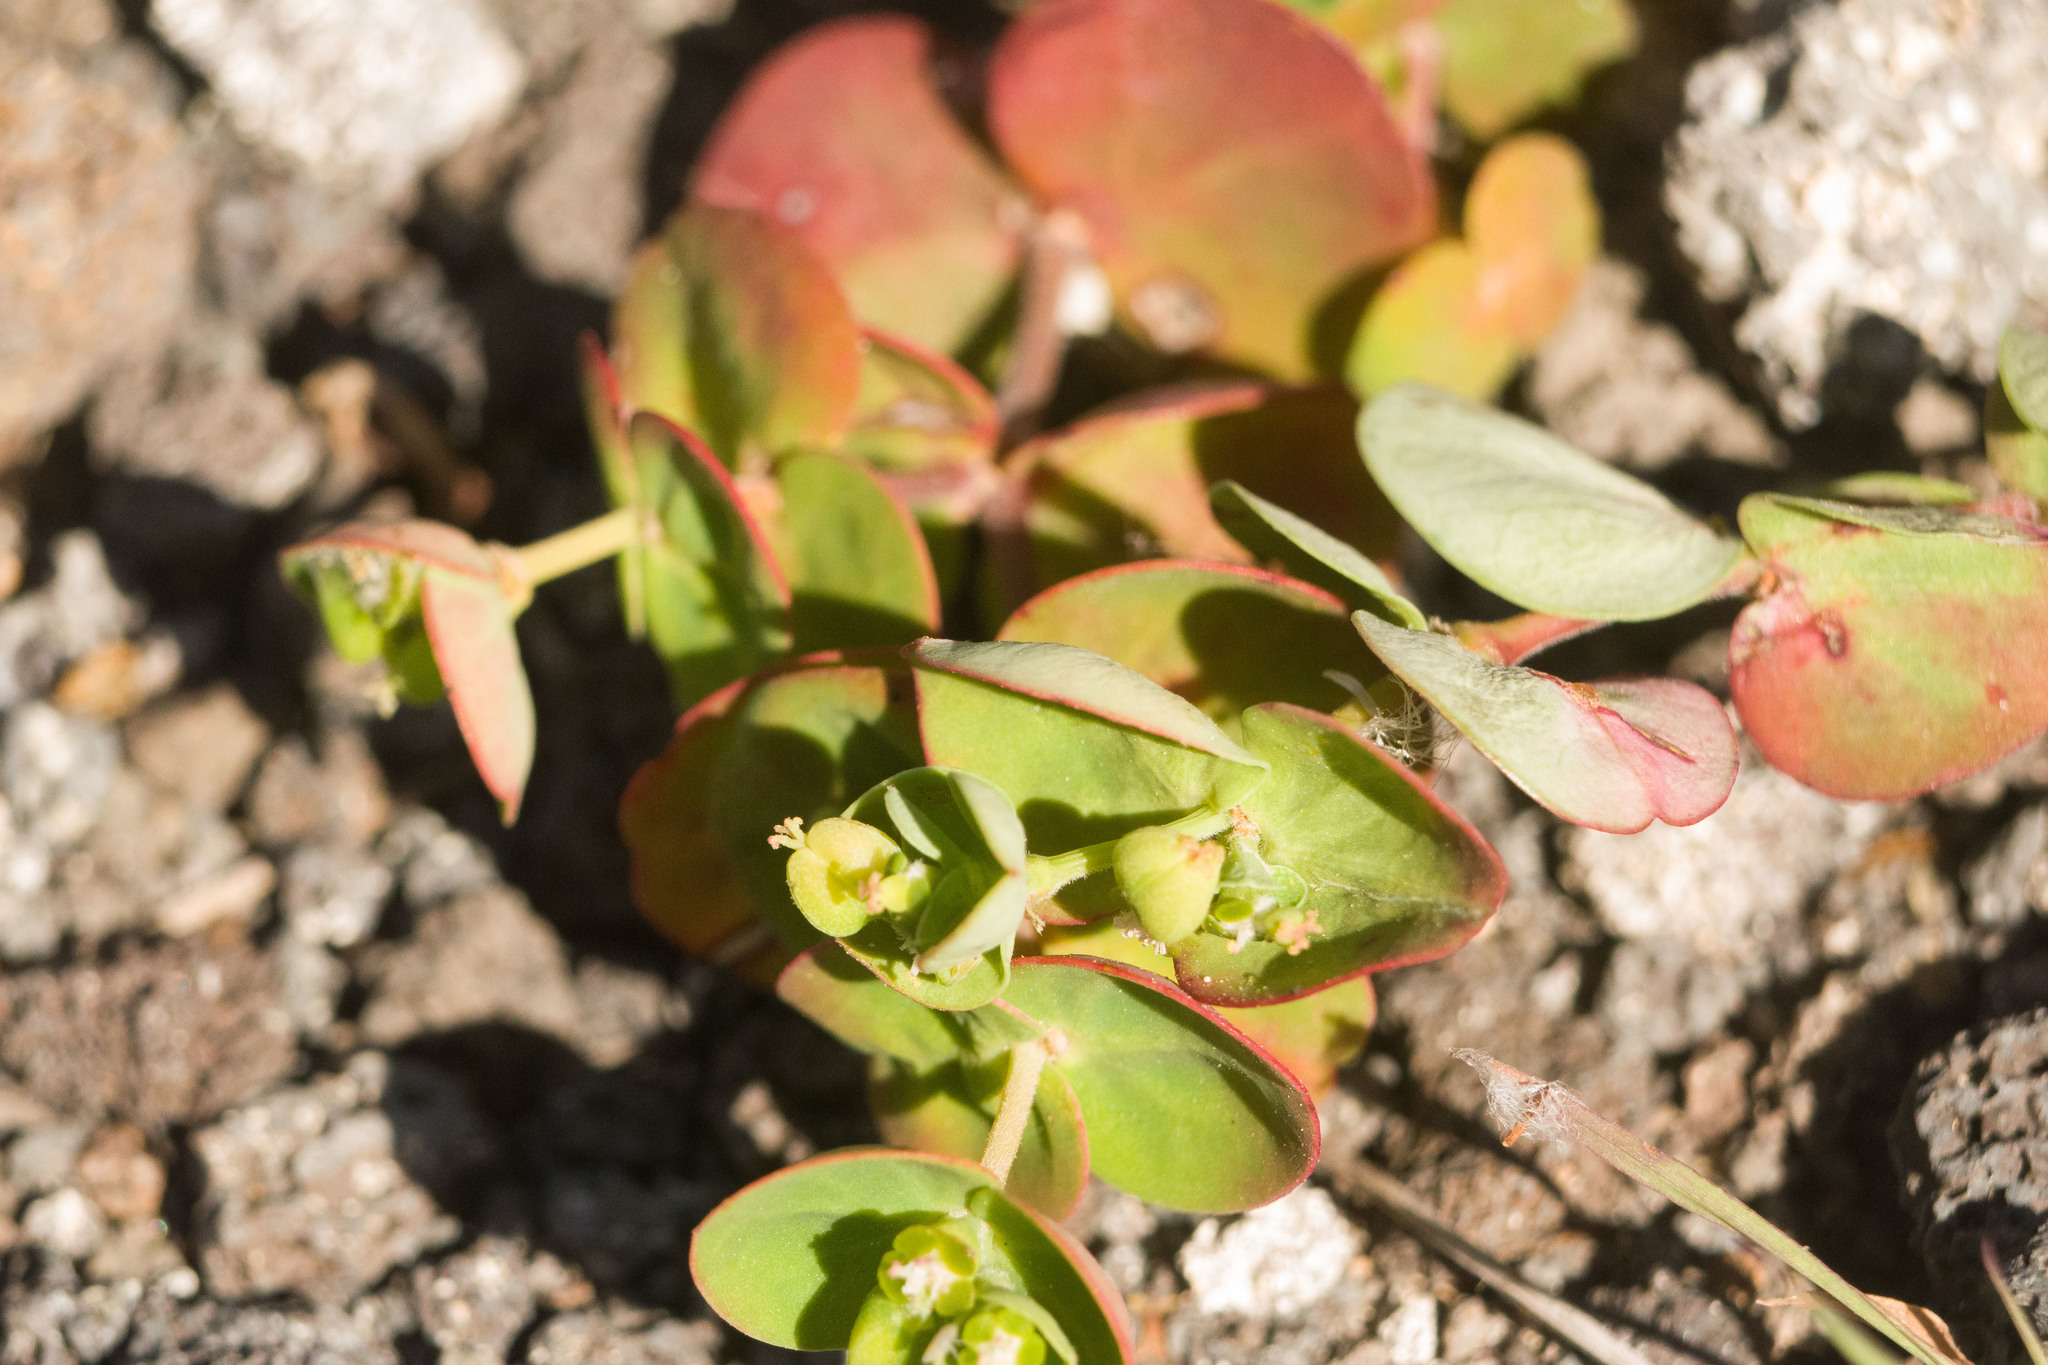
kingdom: Plantae
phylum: Tracheophyta
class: Magnoliopsida
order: Malpighiales
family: Euphorbiaceae
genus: Euphorbia
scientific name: Euphorbia degeneri
